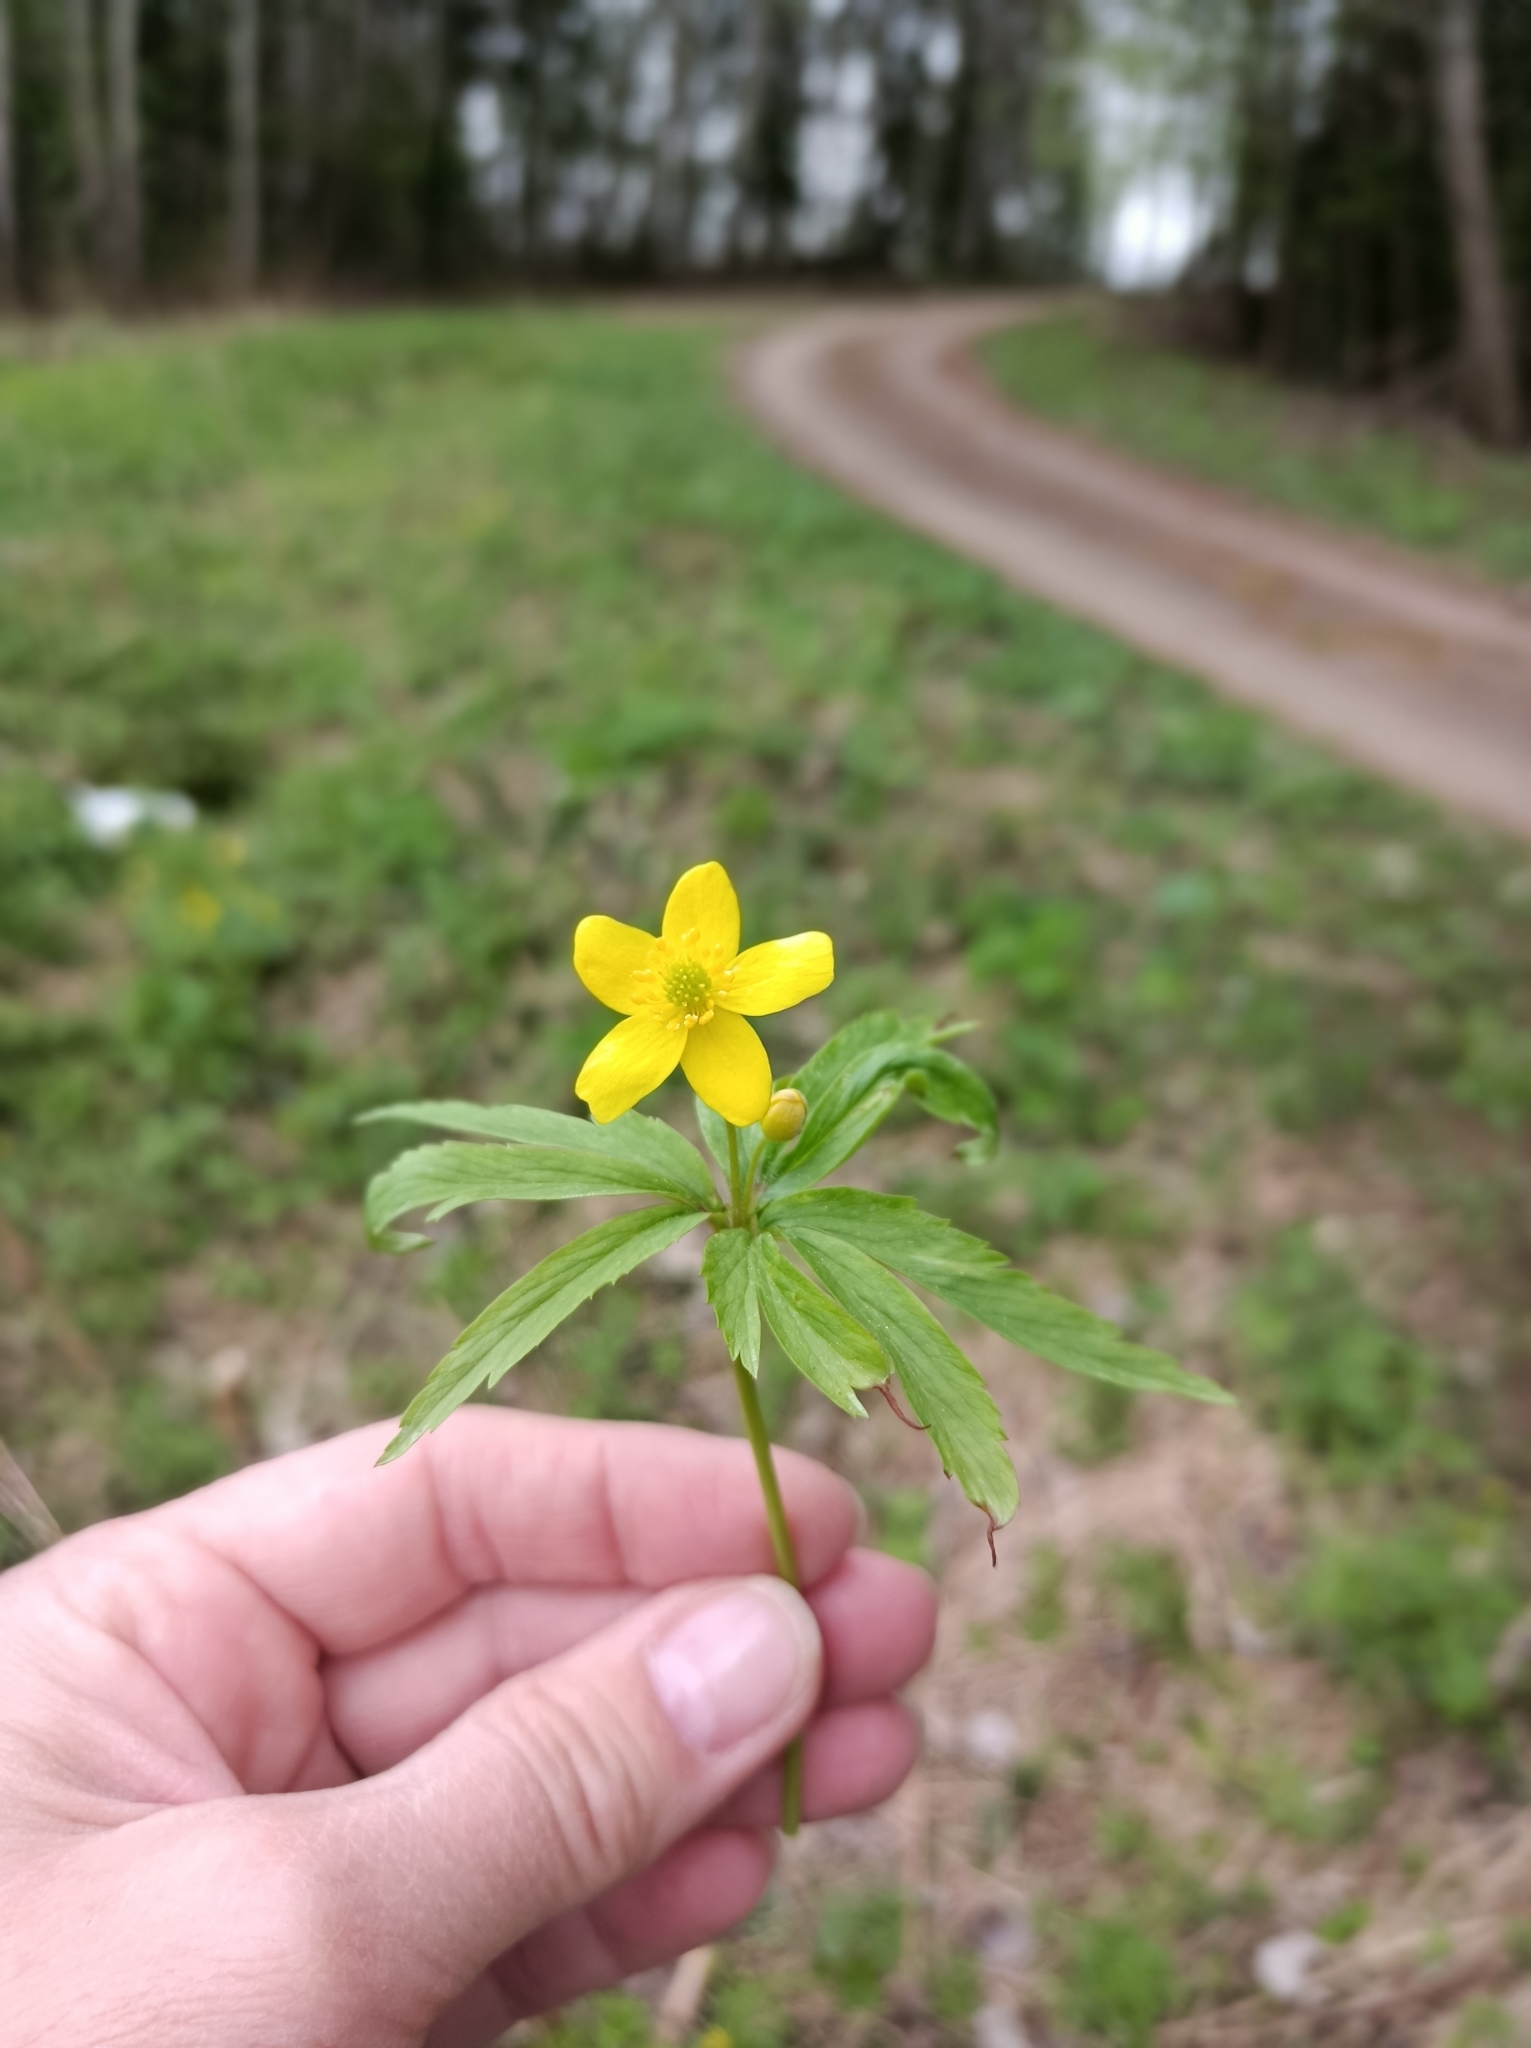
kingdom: Plantae
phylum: Tracheophyta
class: Magnoliopsida
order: Ranunculales
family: Ranunculaceae
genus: Anemone
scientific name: Anemone ranunculoides
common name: Yellow anemone
